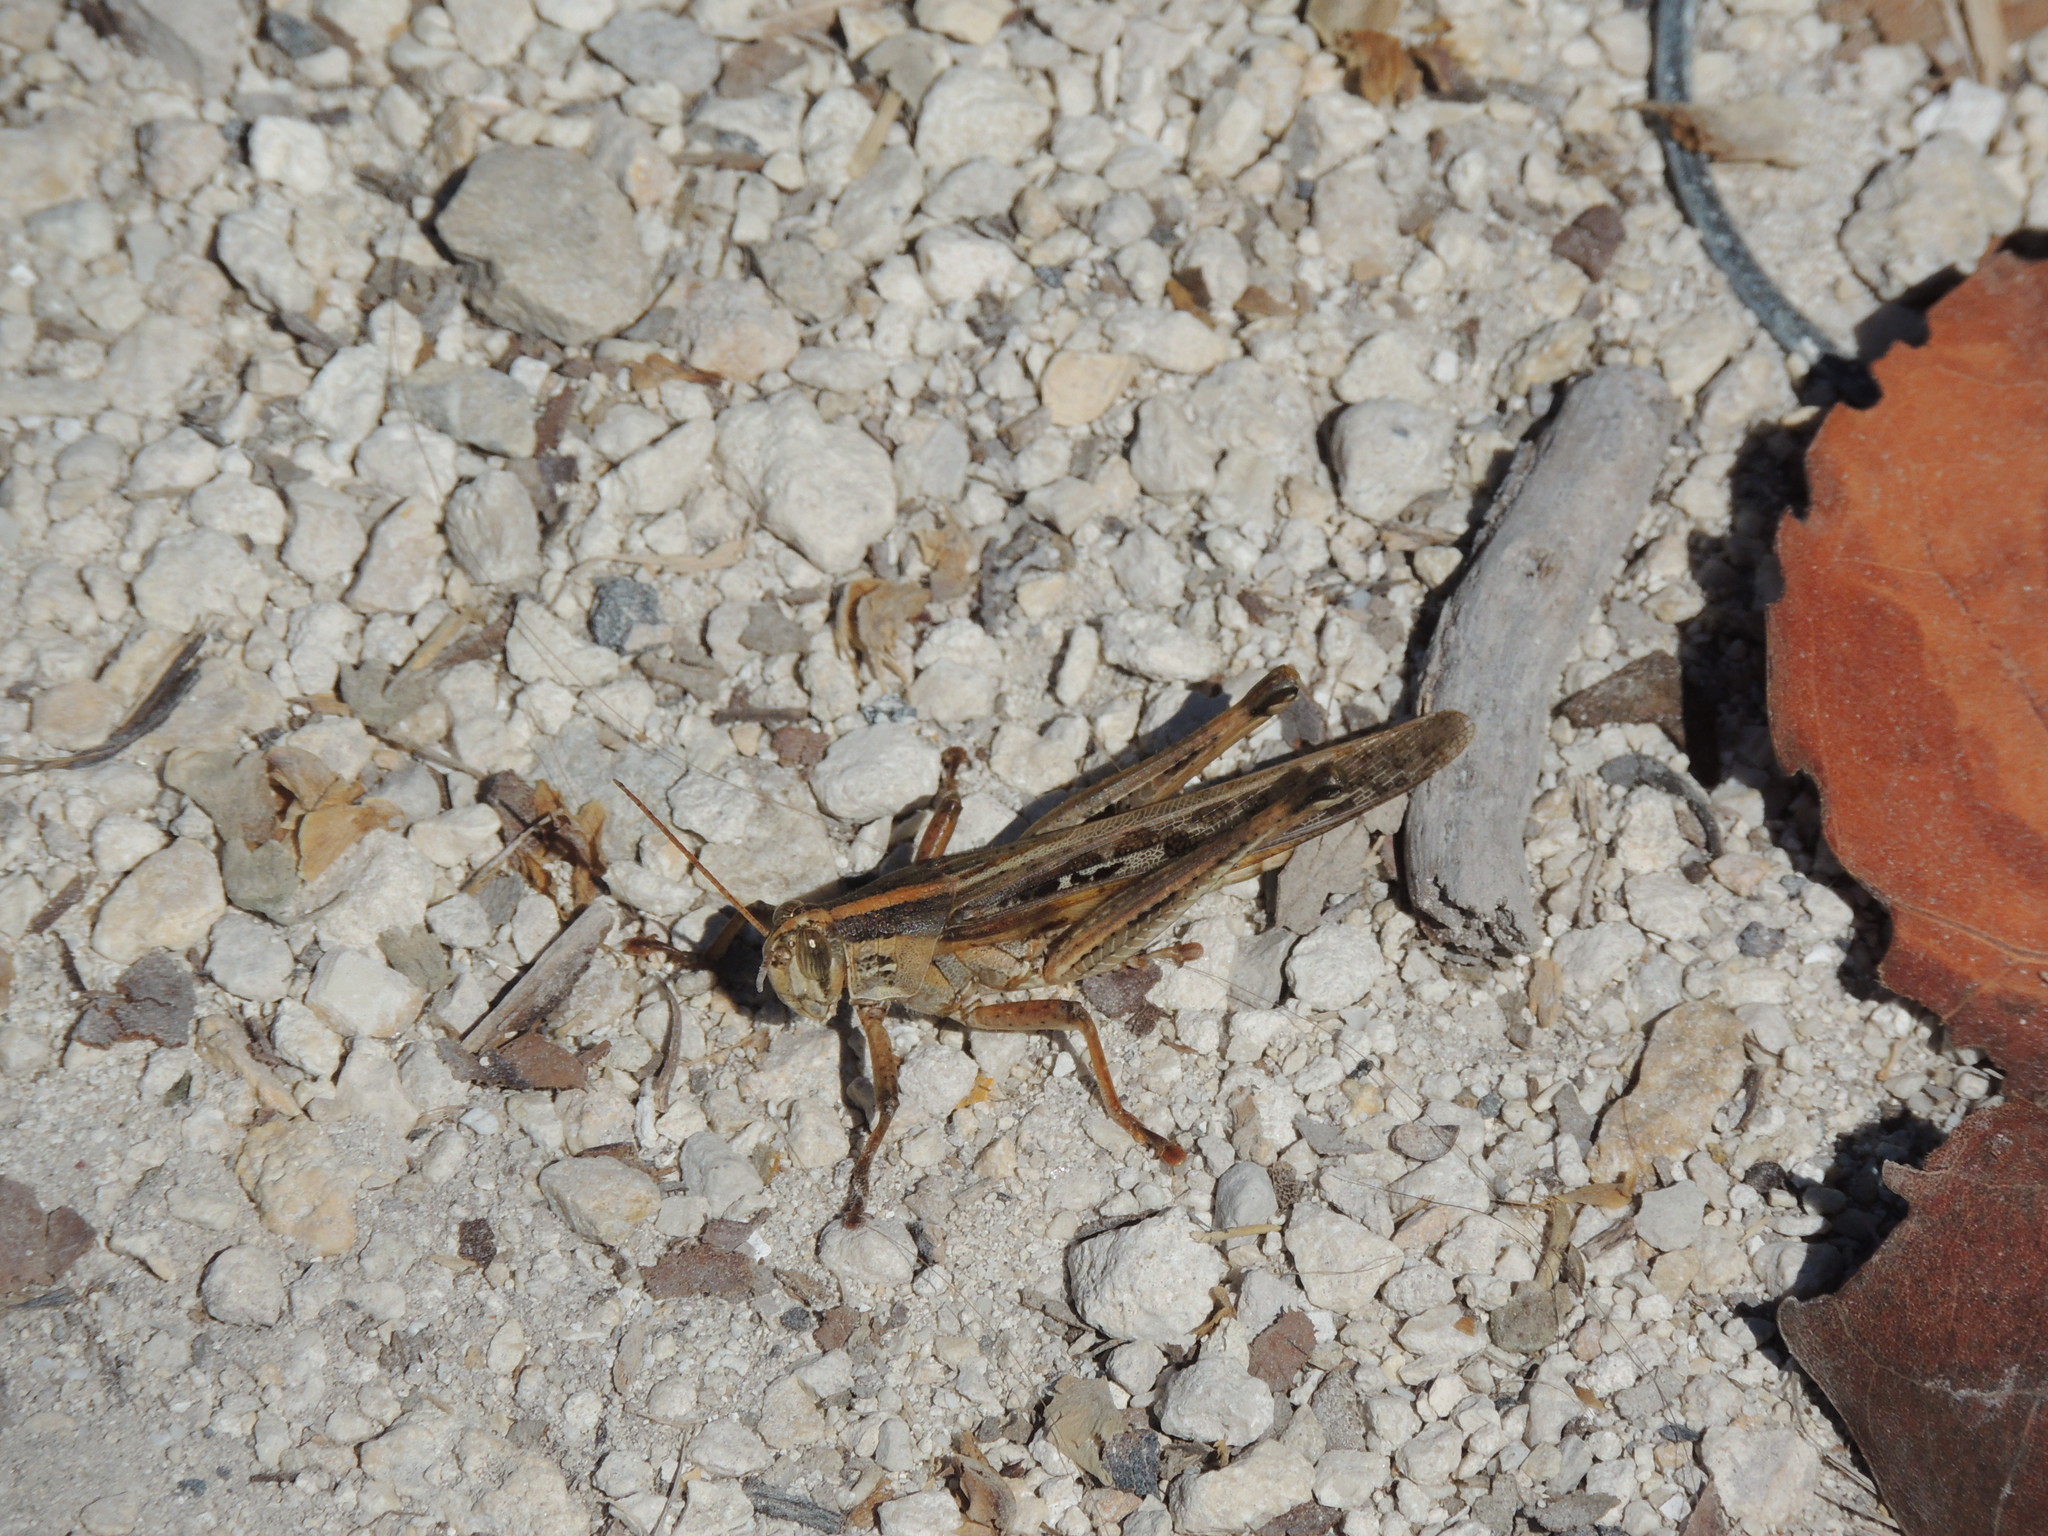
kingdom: Animalia
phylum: Arthropoda
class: Insecta
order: Orthoptera
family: Acrididae
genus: Schistocerca
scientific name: Schistocerca serialis
